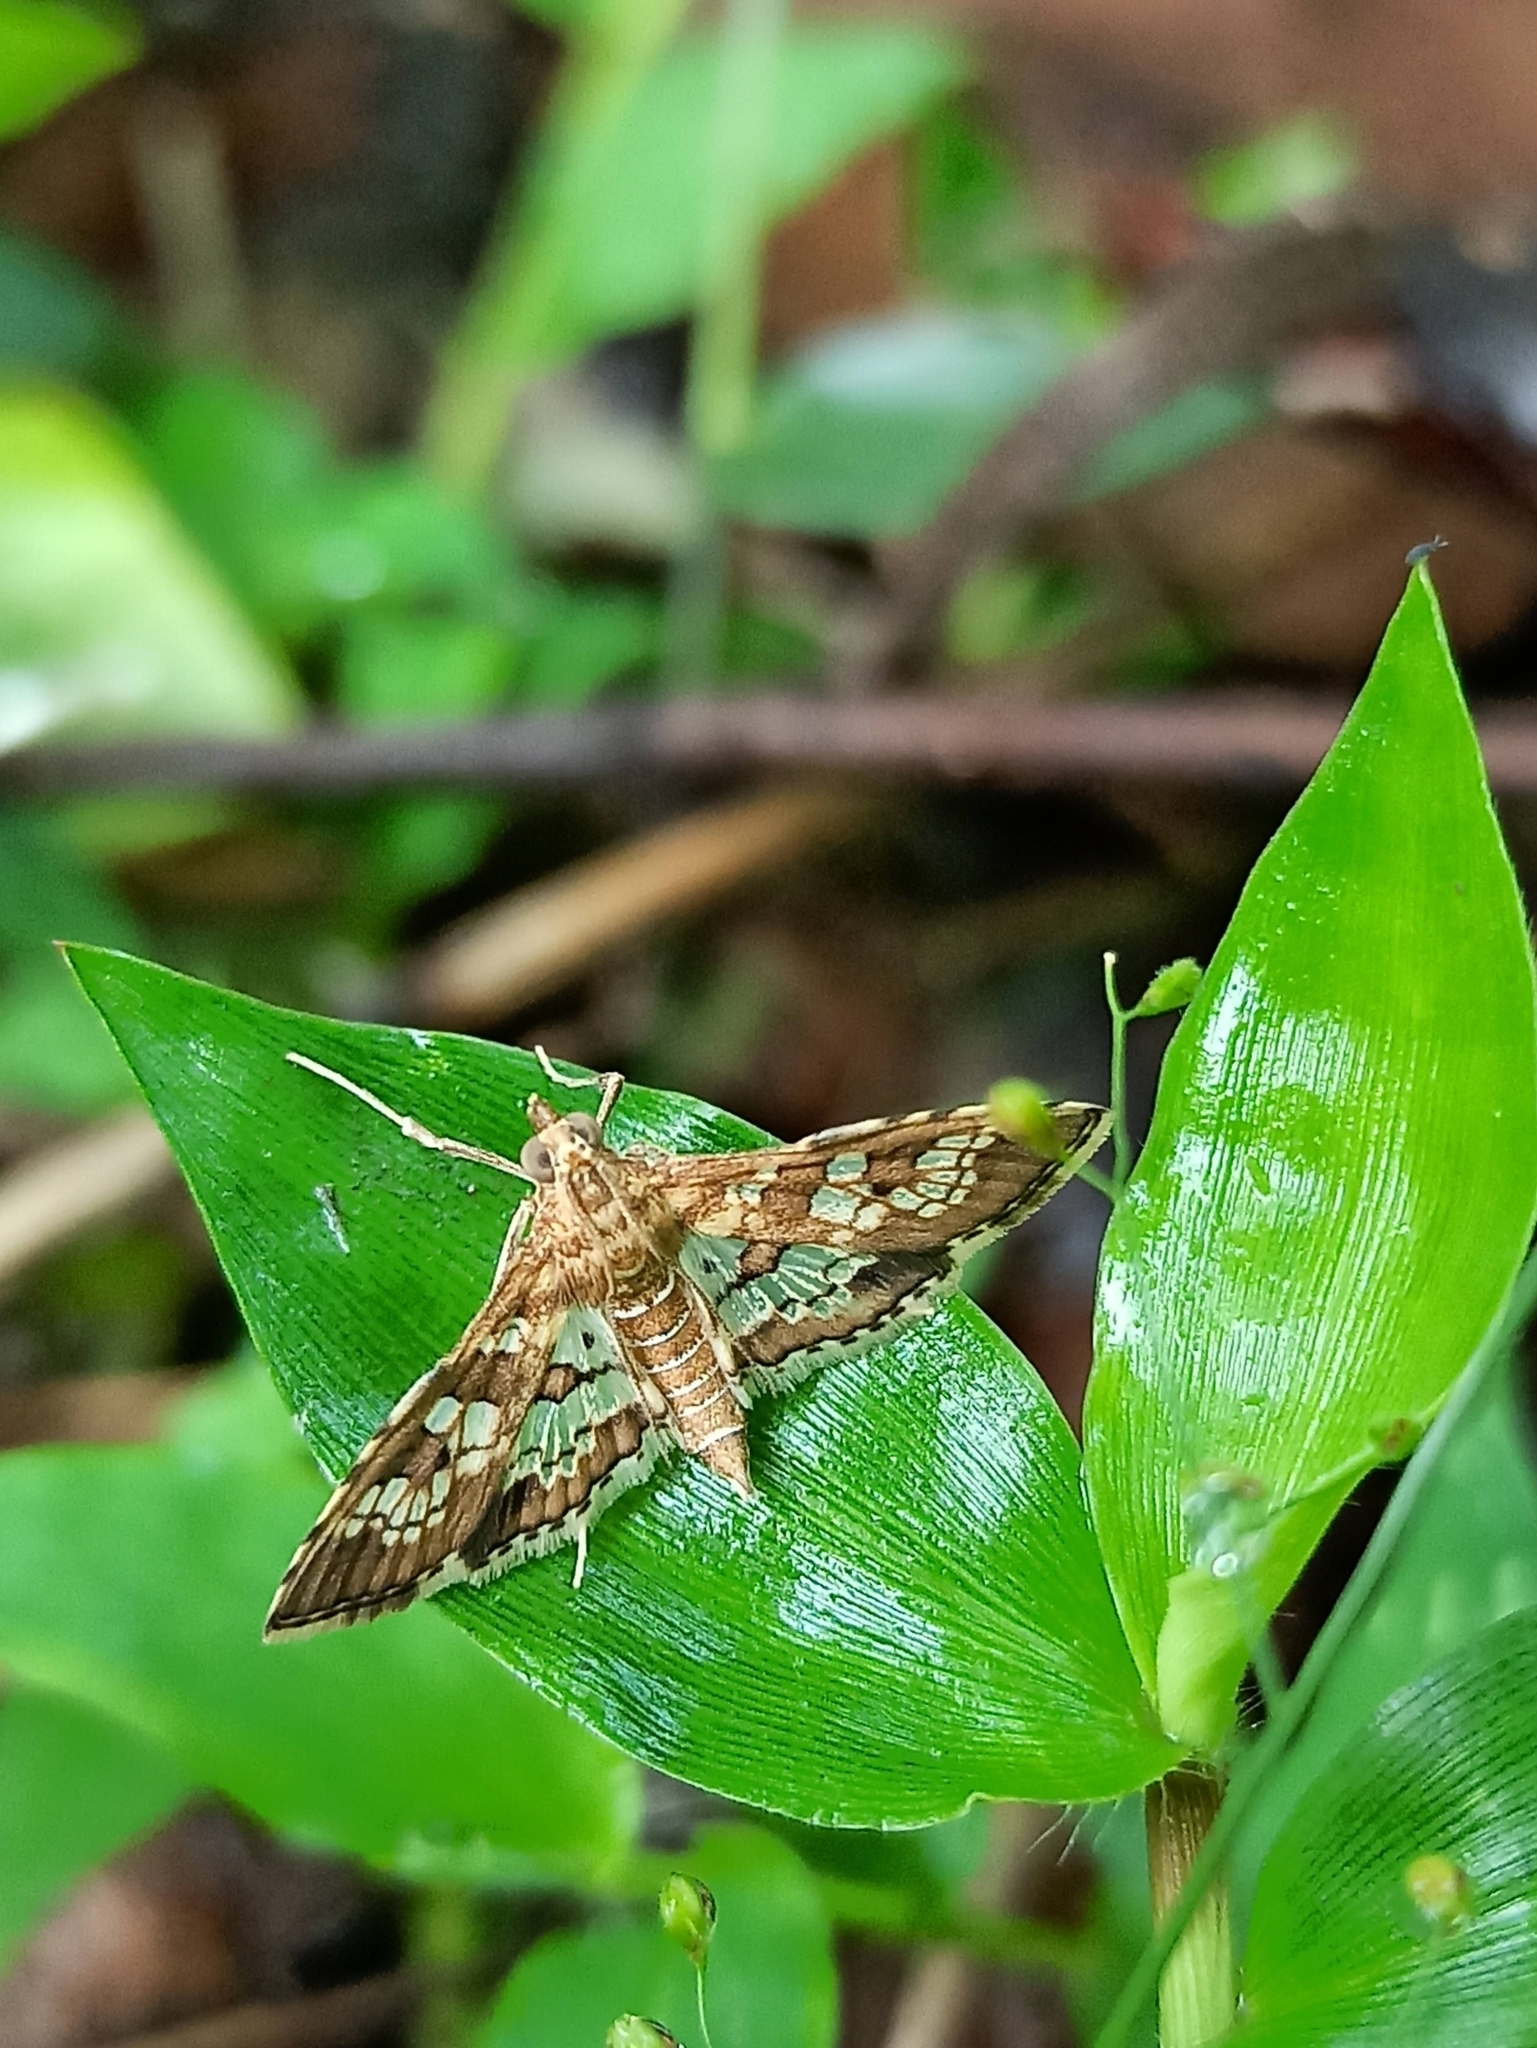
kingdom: Animalia
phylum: Arthropoda
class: Insecta
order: Lepidoptera
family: Crambidae
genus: Sameodes
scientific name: Sameodes cancellalis
